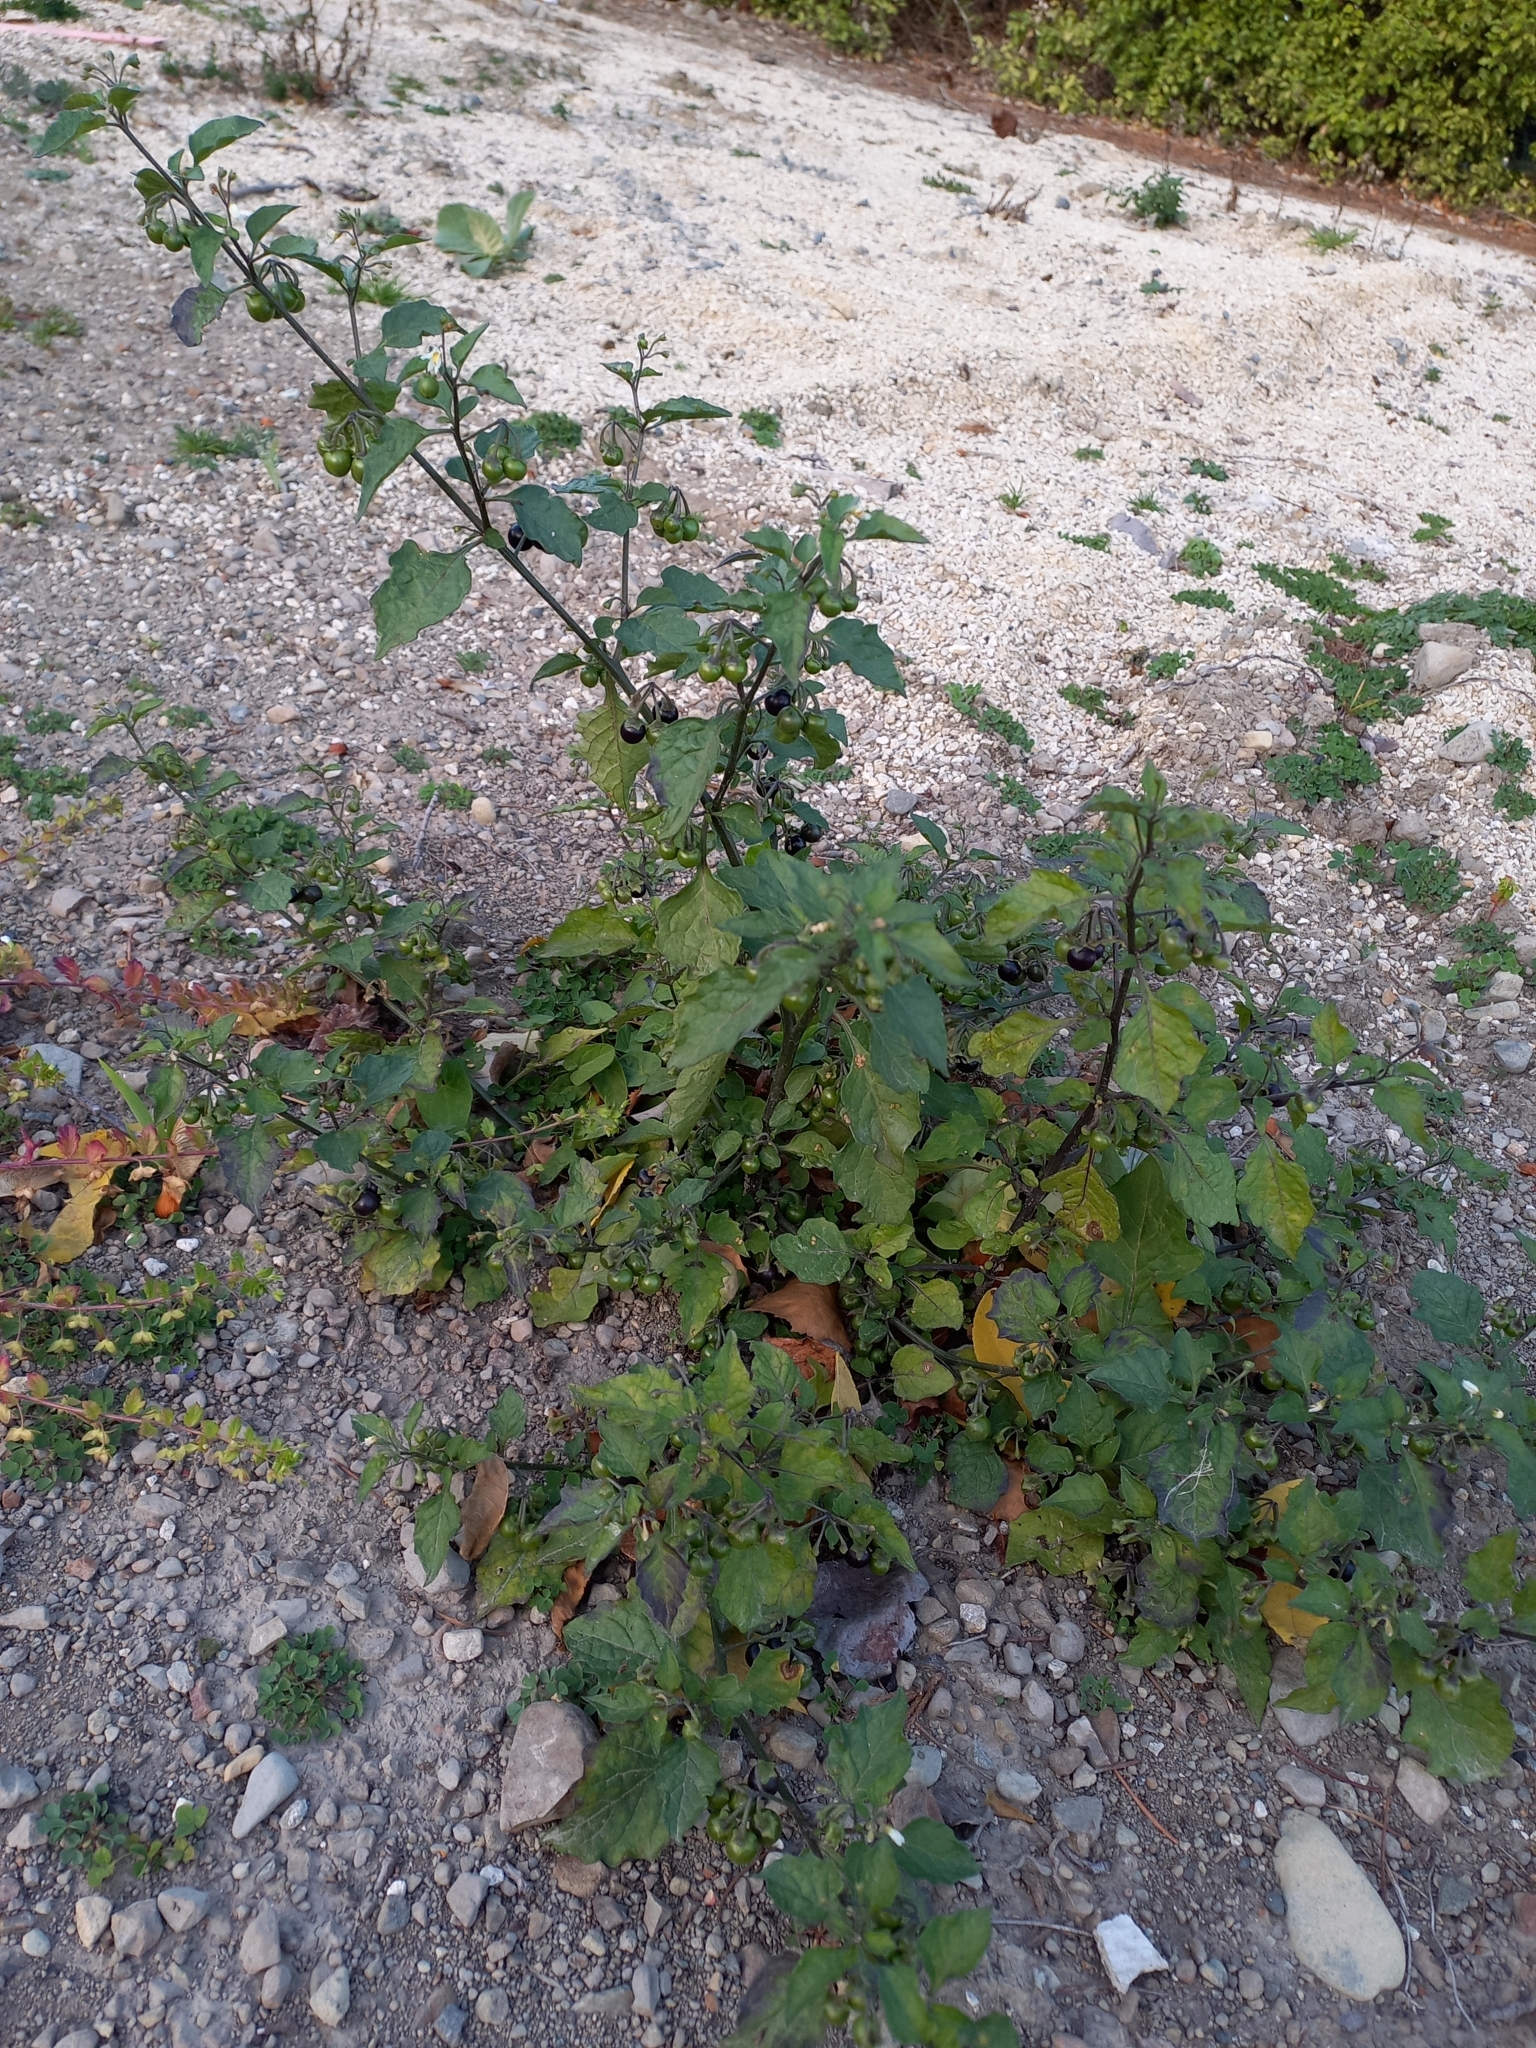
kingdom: Plantae
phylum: Tracheophyta
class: Magnoliopsida
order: Solanales
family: Solanaceae
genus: Solanum
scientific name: Solanum nigrum
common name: Black nightshade
